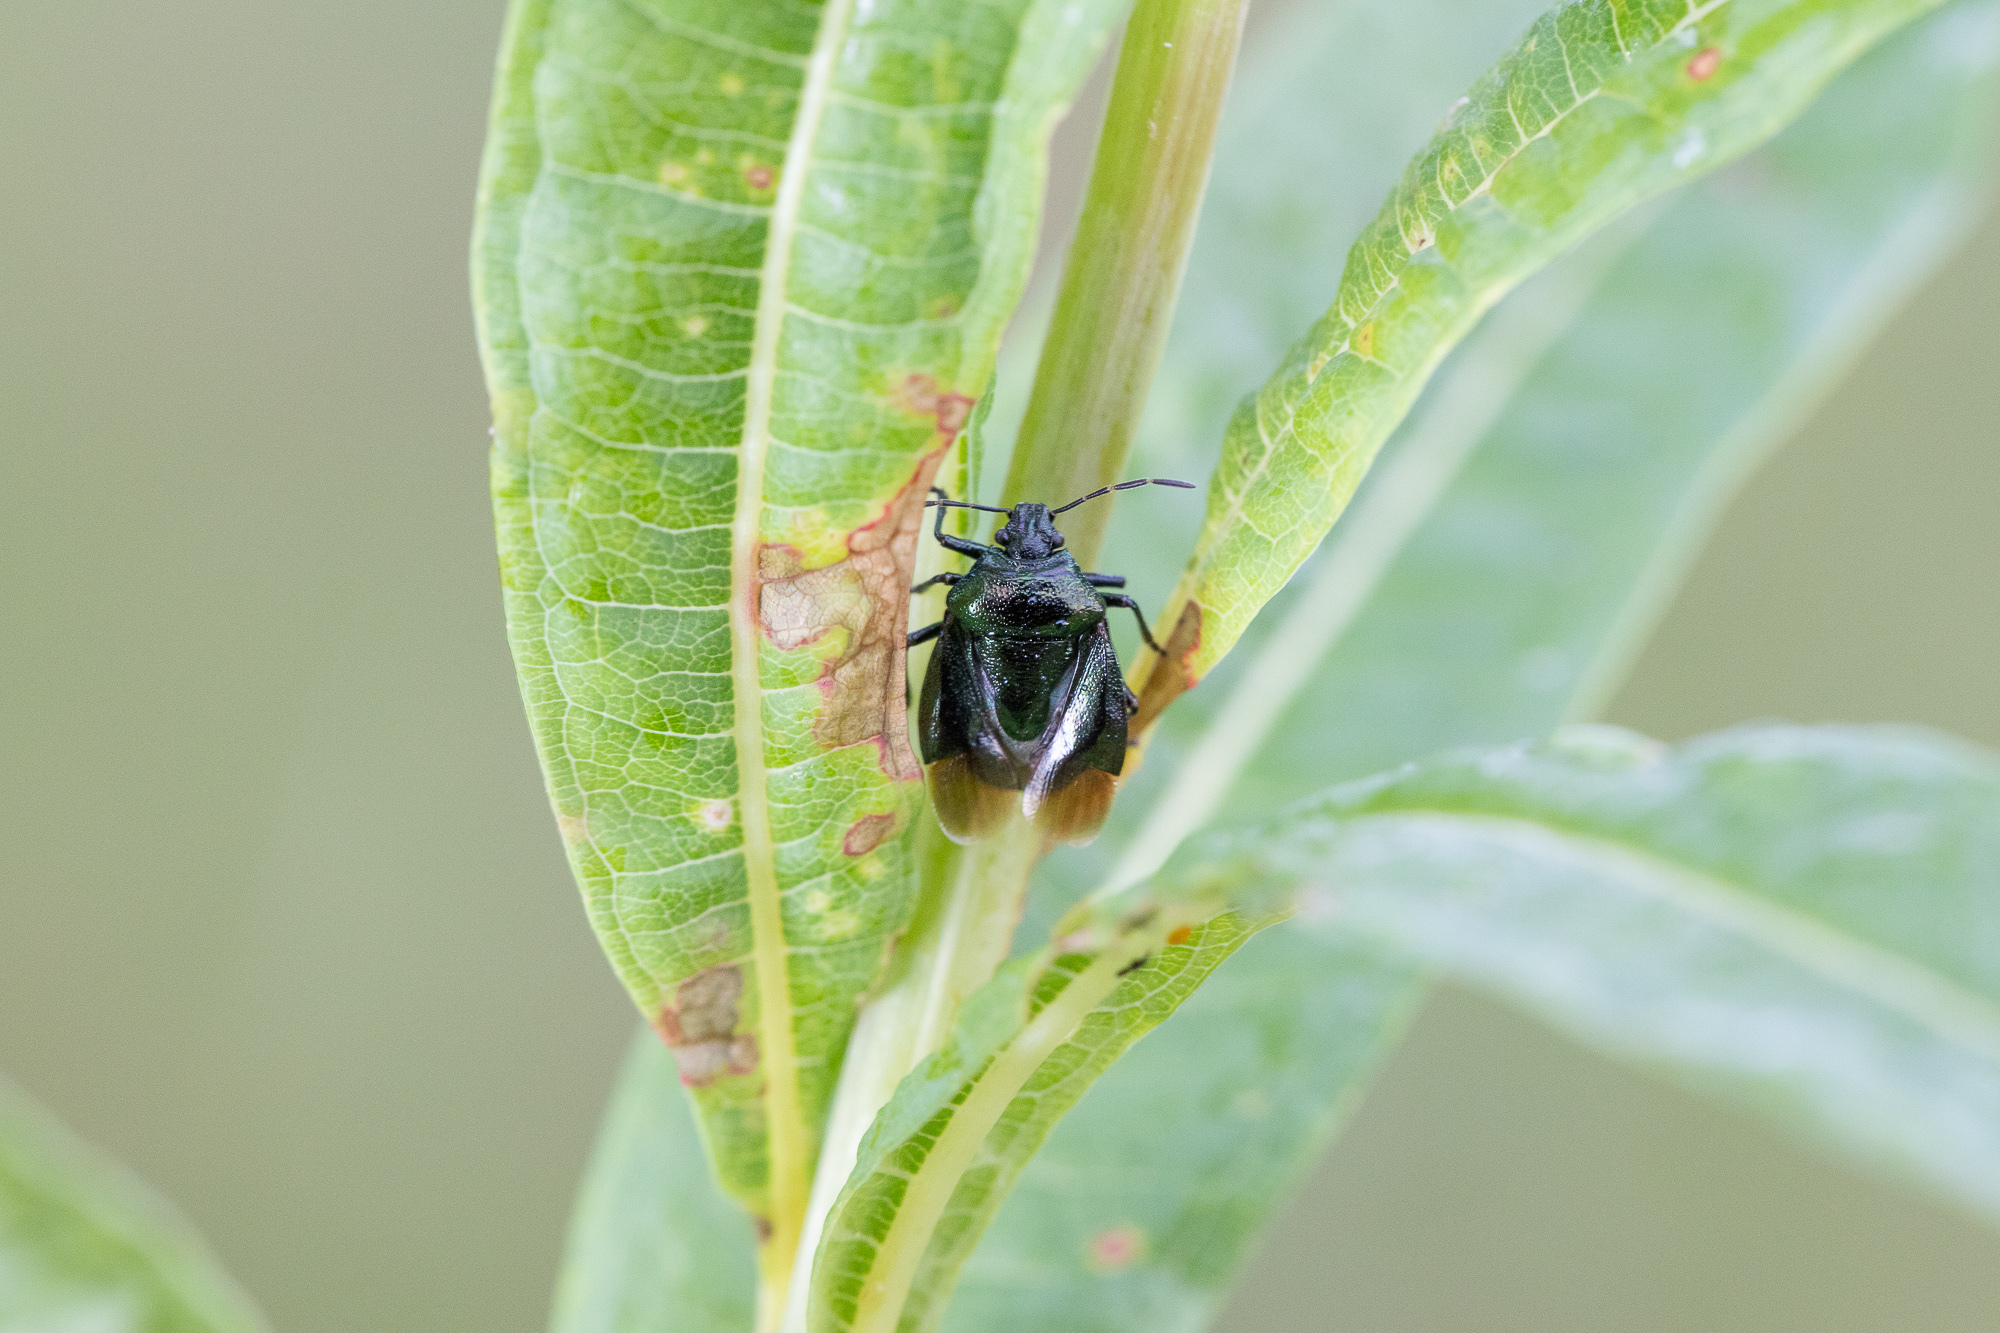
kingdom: Animalia
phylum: Arthropoda
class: Insecta
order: Hemiptera
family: Pentatomidae
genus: Zicrona
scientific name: Zicrona caerulea
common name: Blue shieldbug
